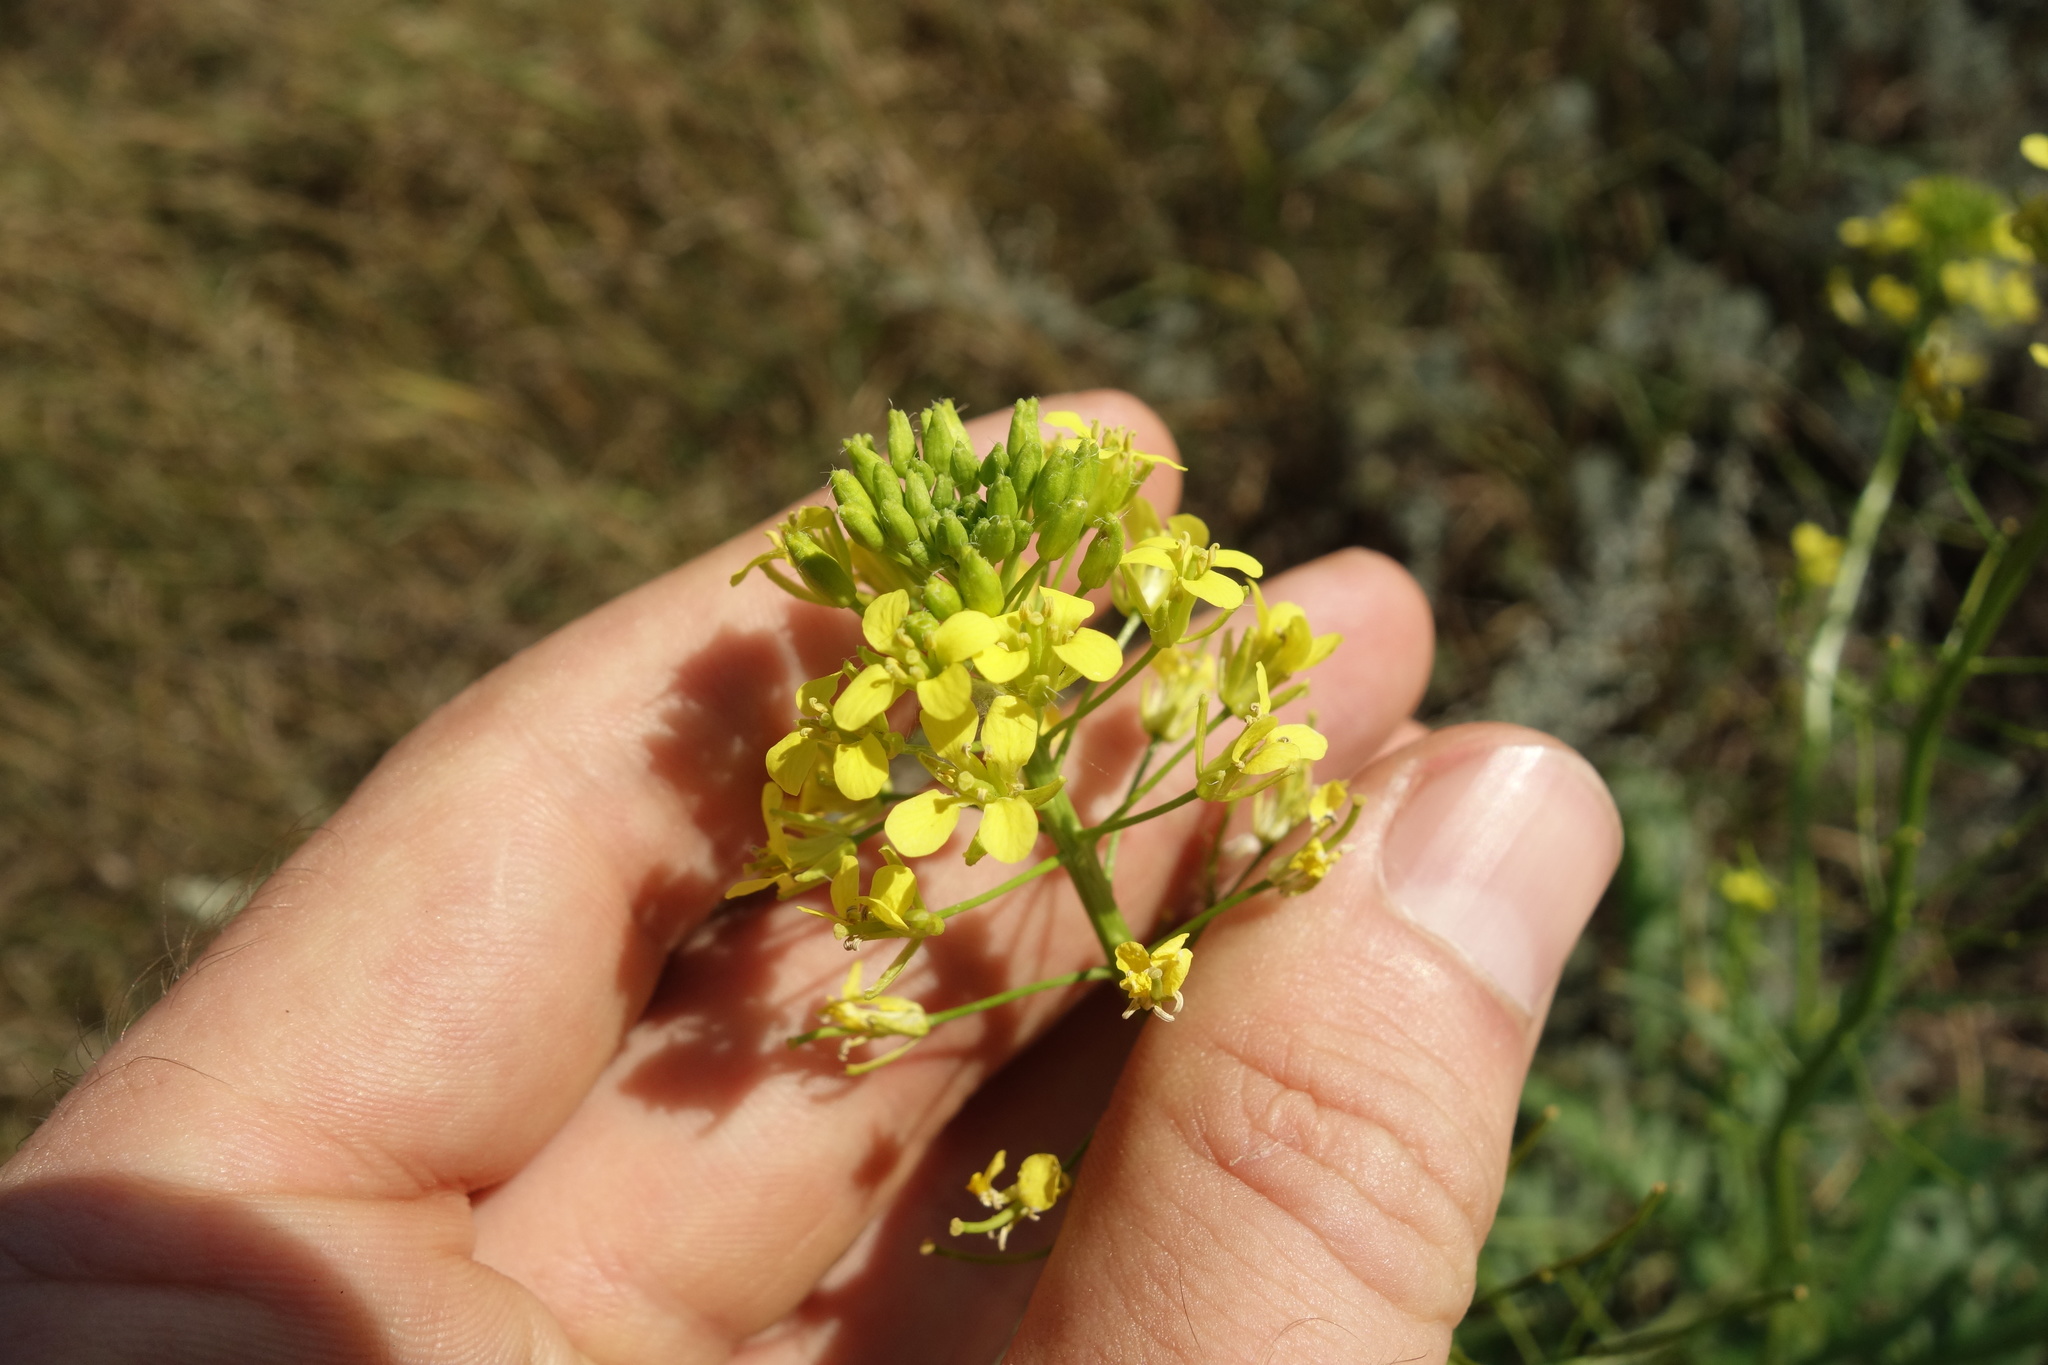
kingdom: Plantae
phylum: Tracheophyta
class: Magnoliopsida
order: Brassicales
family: Brassicaceae
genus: Sisymbrium
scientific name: Sisymbrium loeselii
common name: False london-rocket
